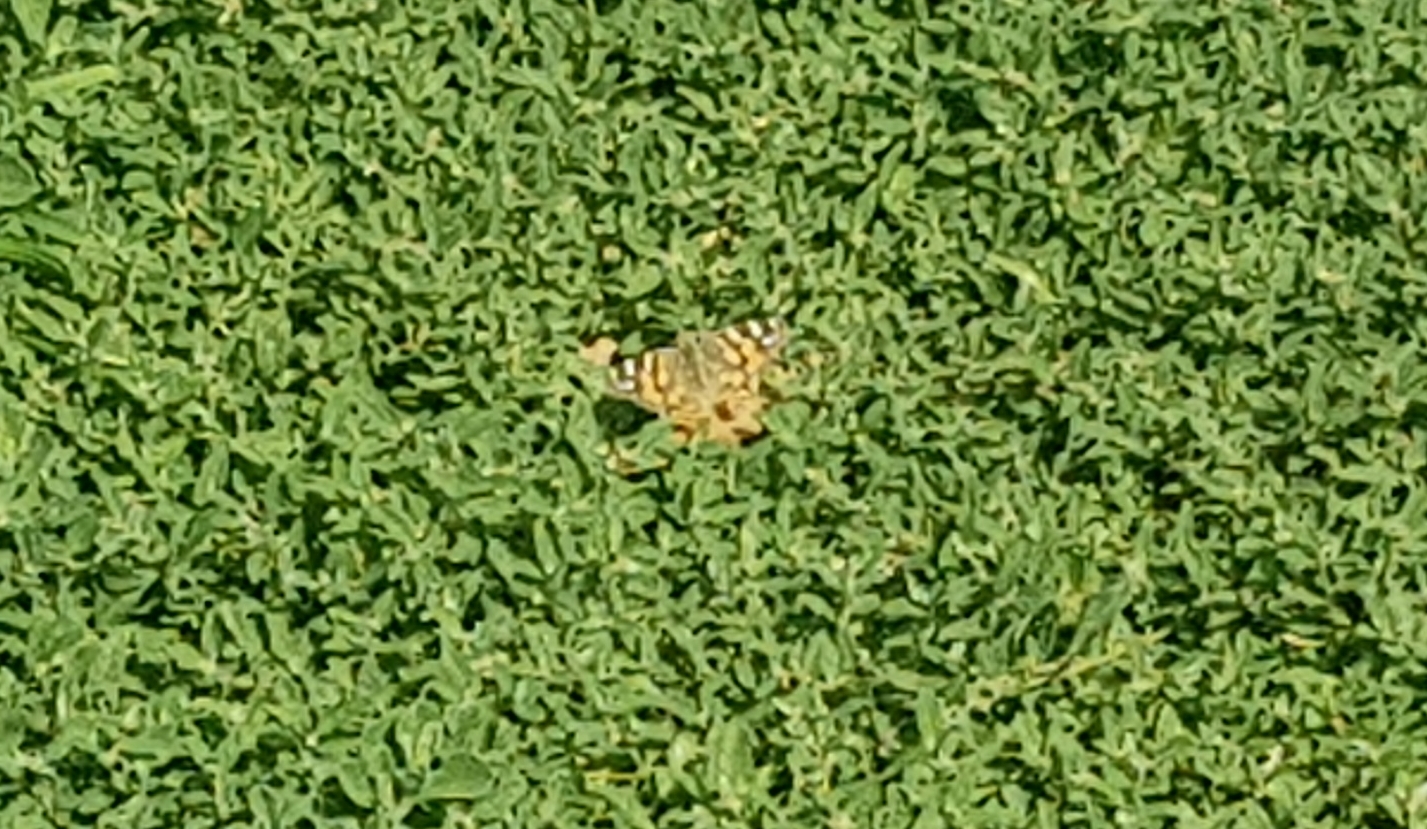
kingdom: Animalia
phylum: Arthropoda
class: Insecta
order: Lepidoptera
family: Nymphalidae
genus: Vanessa
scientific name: Vanessa kershawi
